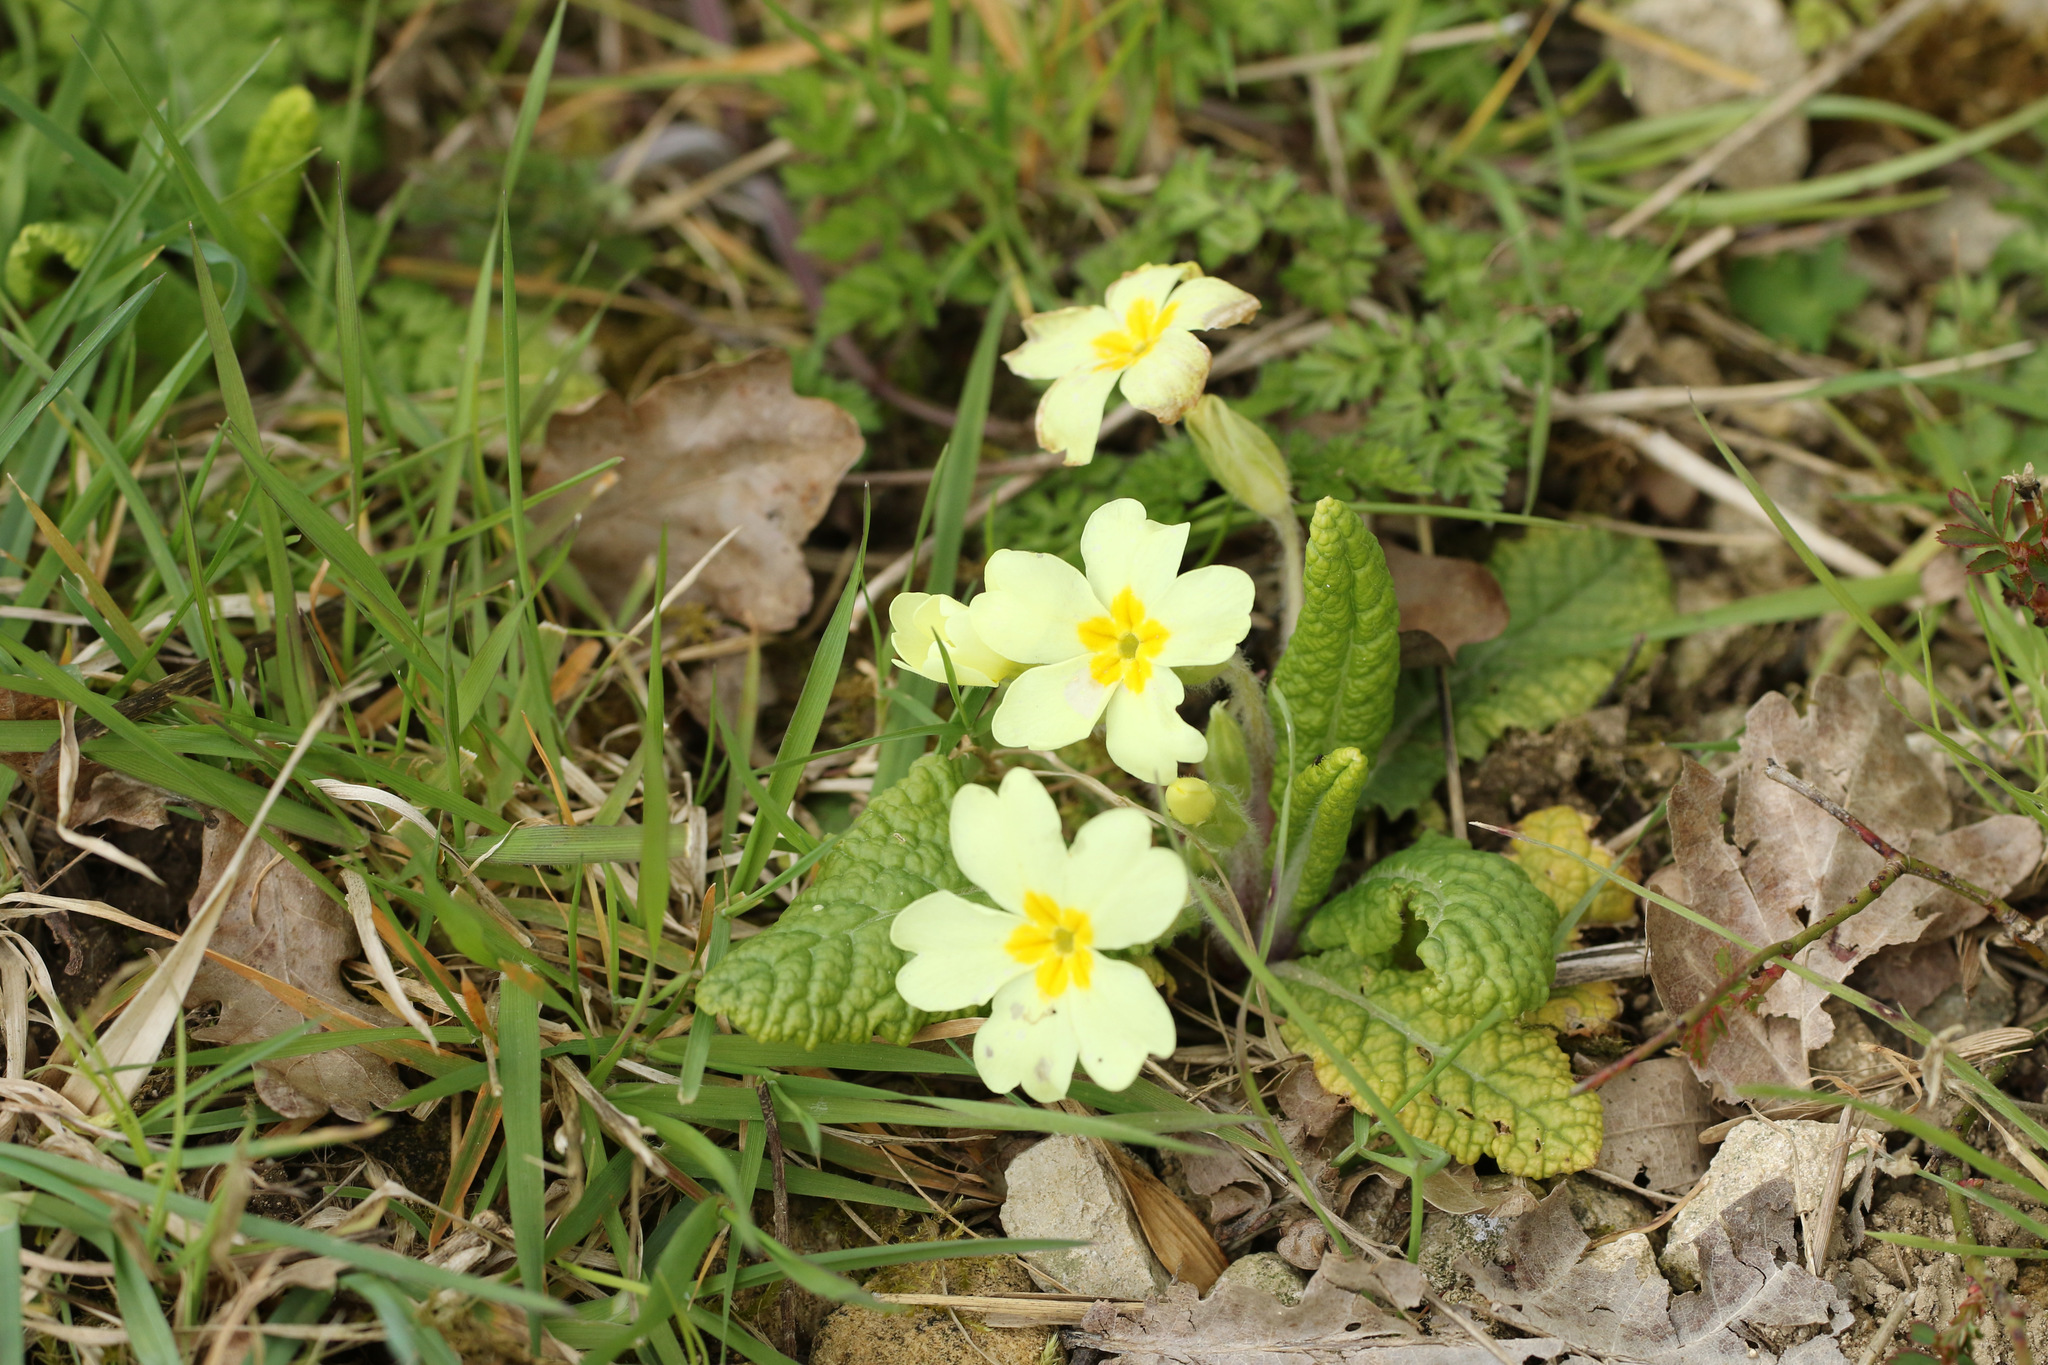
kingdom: Plantae
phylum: Tracheophyta
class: Magnoliopsida
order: Ericales
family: Primulaceae
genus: Primula
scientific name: Primula vulgaris
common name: Primrose
